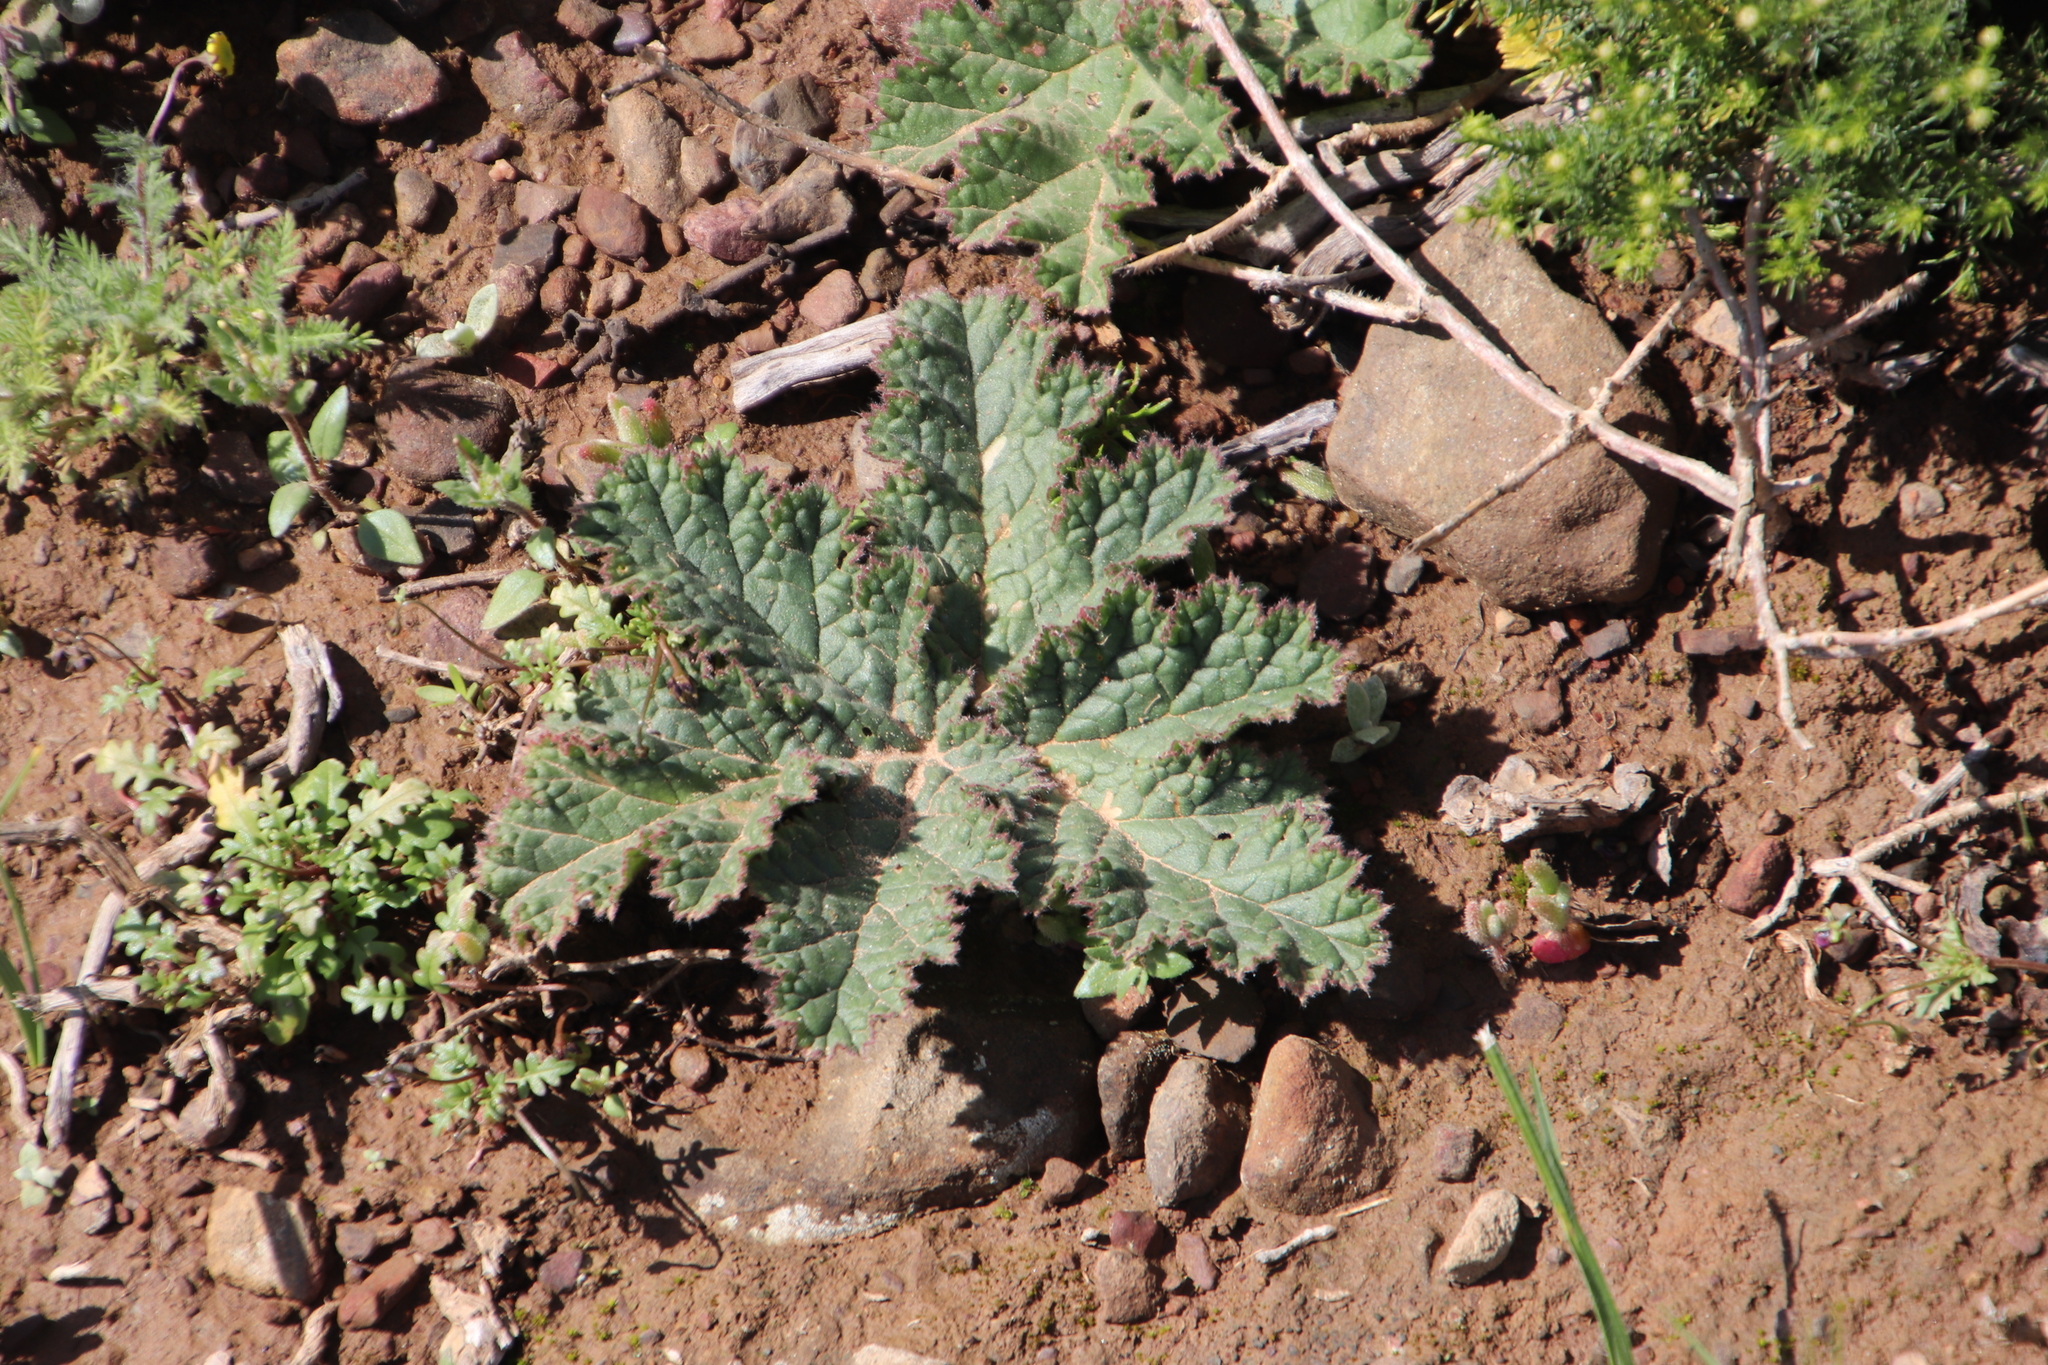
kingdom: Plantae
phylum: Tracheophyta
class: Magnoliopsida
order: Geraniales
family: Geraniaceae
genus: Pelargonium
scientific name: Pelargonium lobatum
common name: Vine-leaf pelargonium
